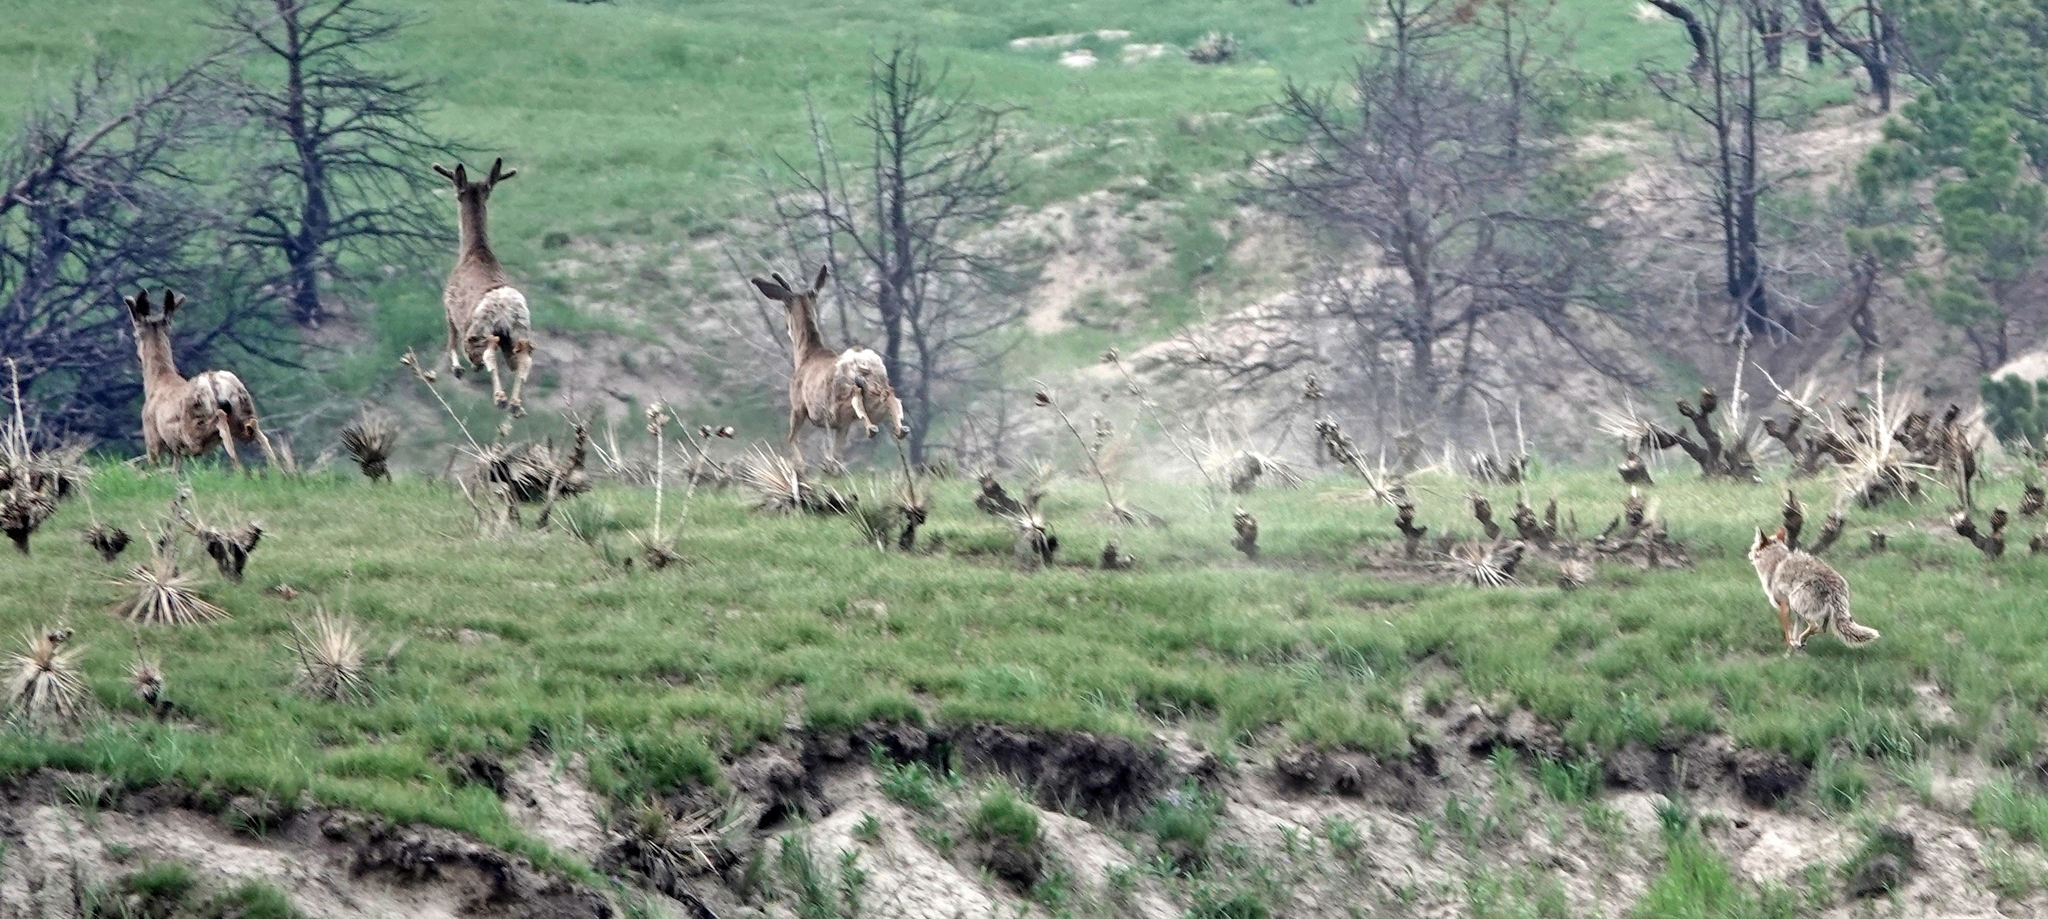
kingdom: Animalia
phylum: Chordata
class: Mammalia
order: Carnivora
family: Canidae
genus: Canis
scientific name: Canis latrans
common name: Coyote
